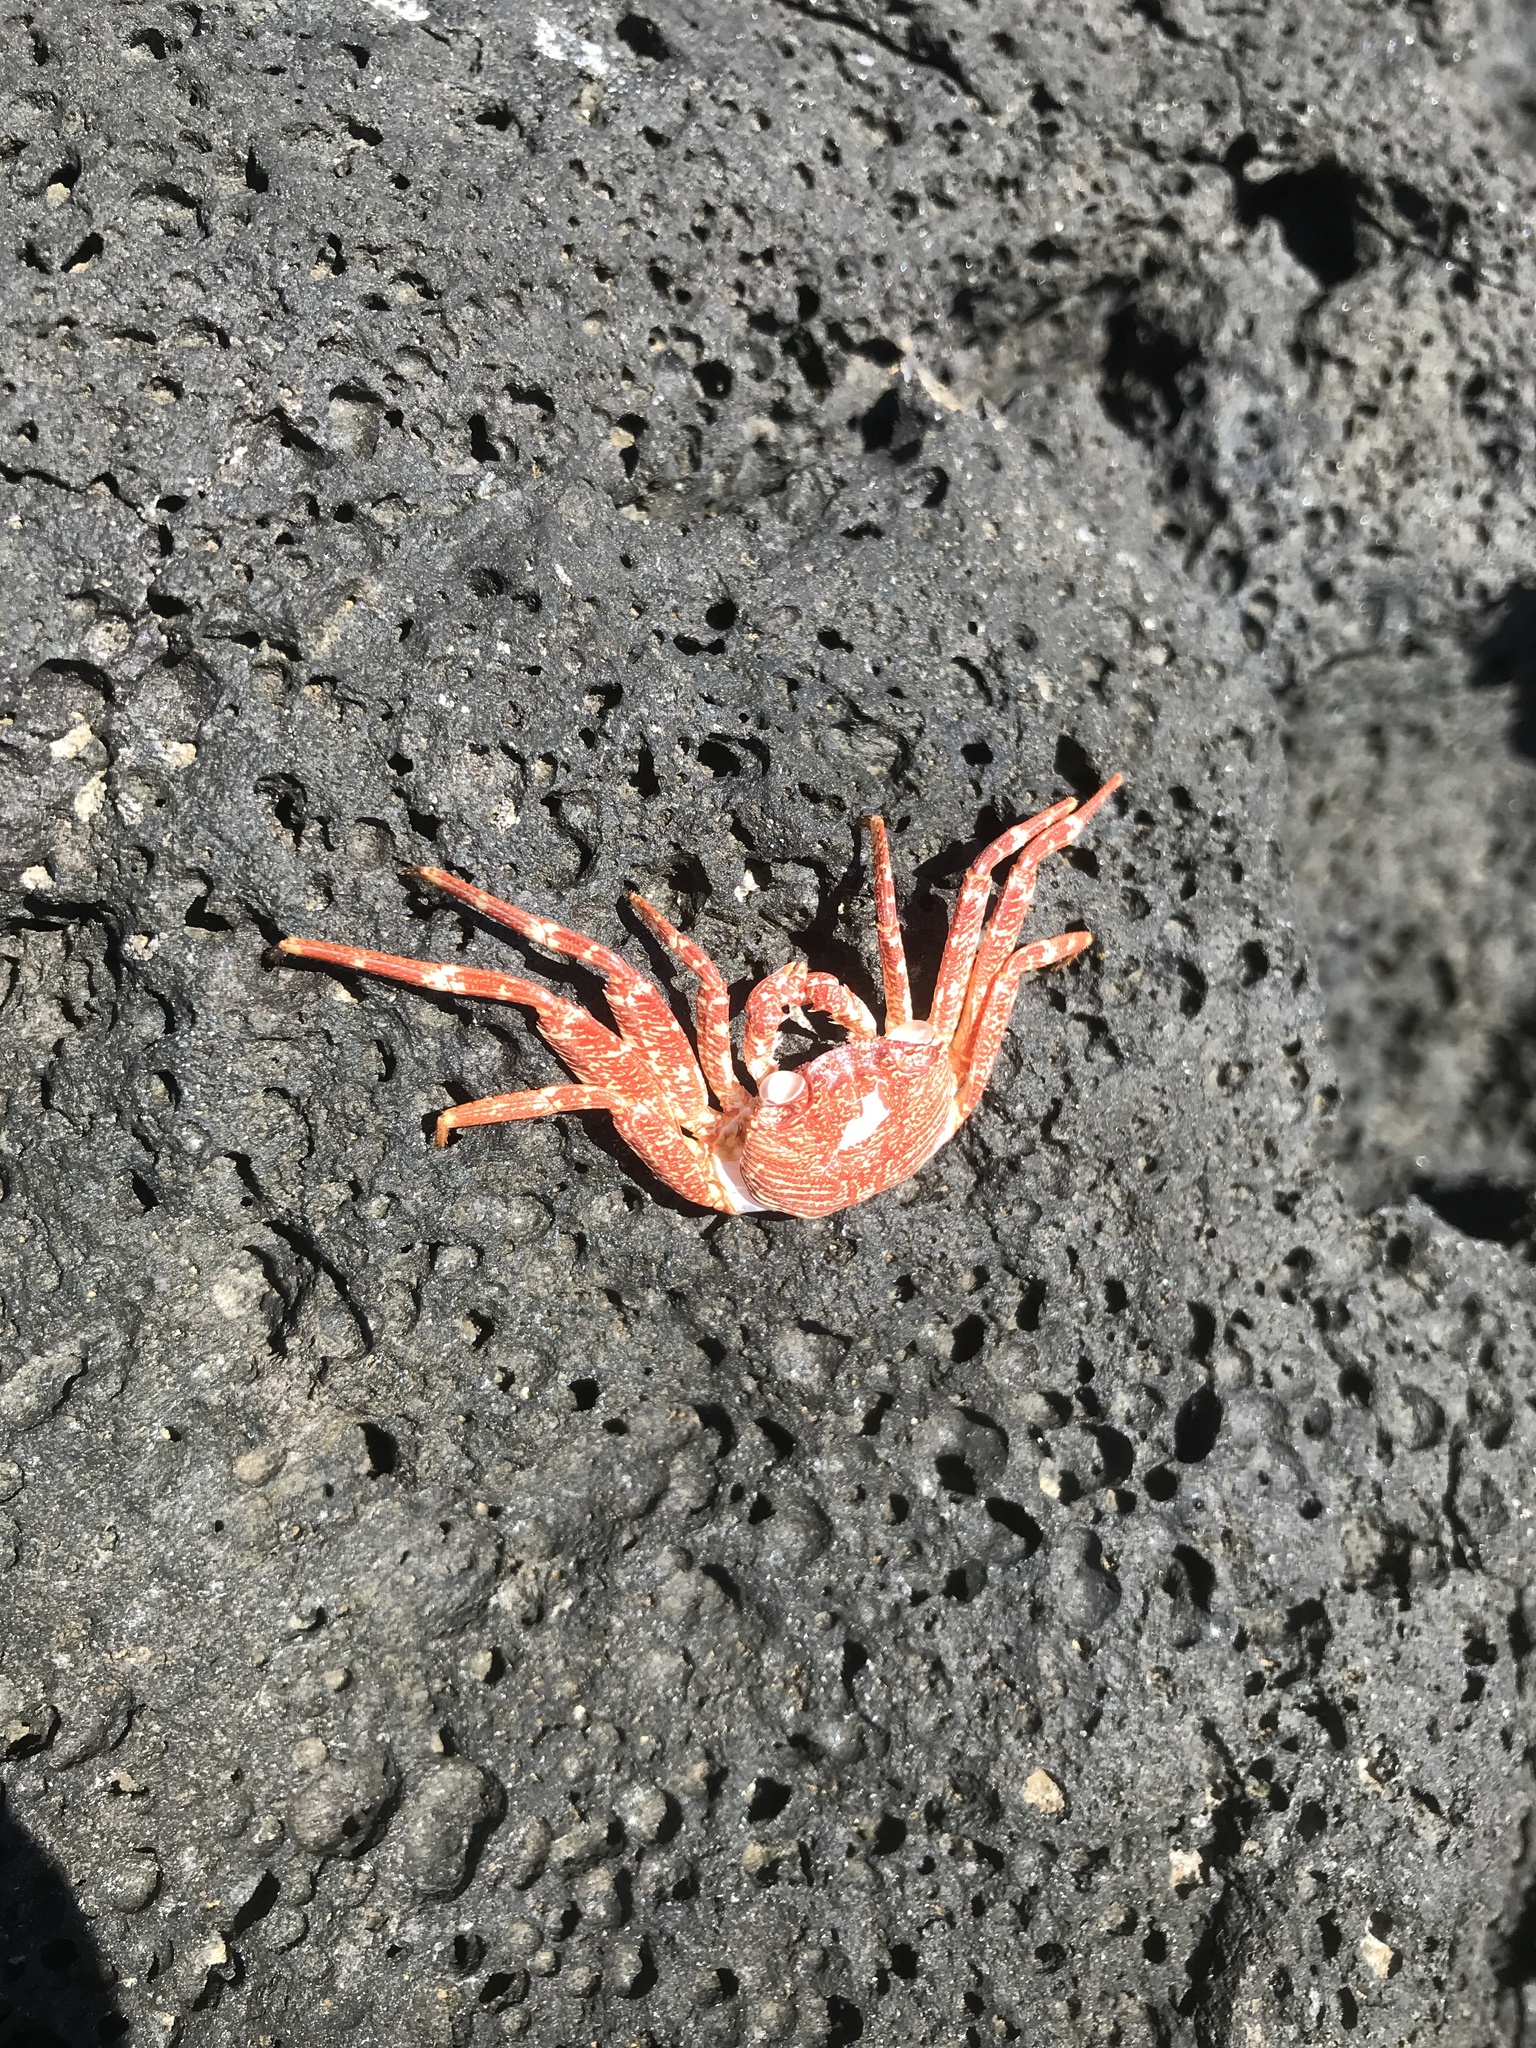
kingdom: Animalia
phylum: Arthropoda
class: Malacostraca
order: Decapoda
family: Grapsidae
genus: Grapsus
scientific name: Grapsus tenuicrustatus
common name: Natal lightfoot crab
